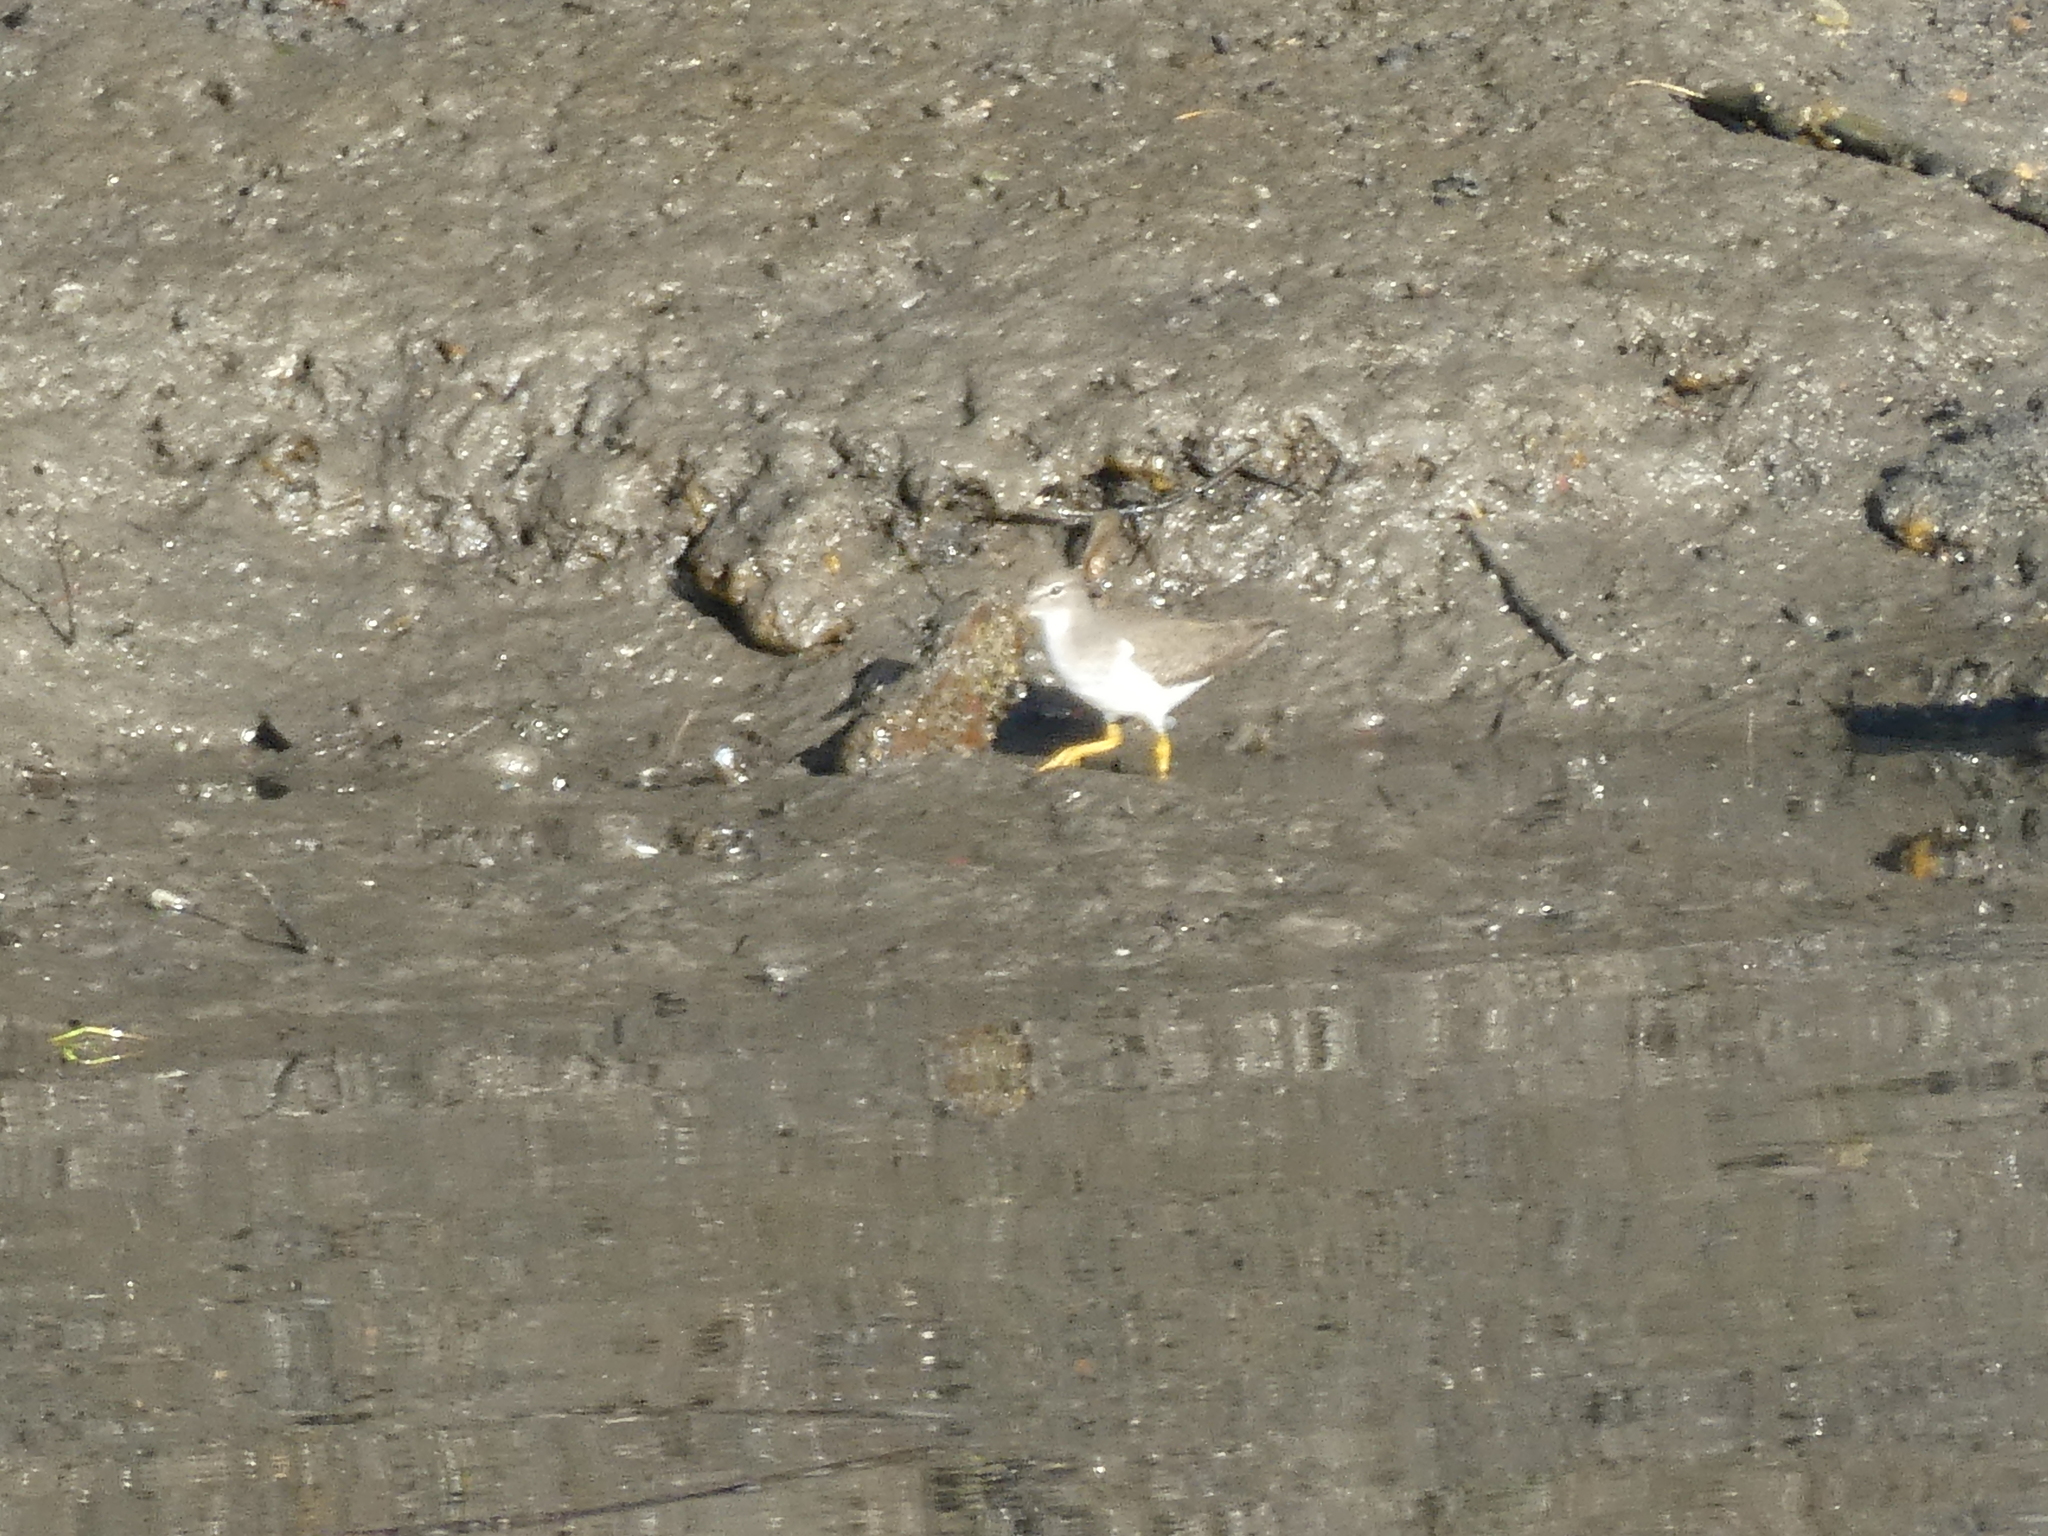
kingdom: Animalia
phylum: Chordata
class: Aves
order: Charadriiformes
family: Scolopacidae
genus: Actitis
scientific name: Actitis macularius
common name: Spotted sandpiper
